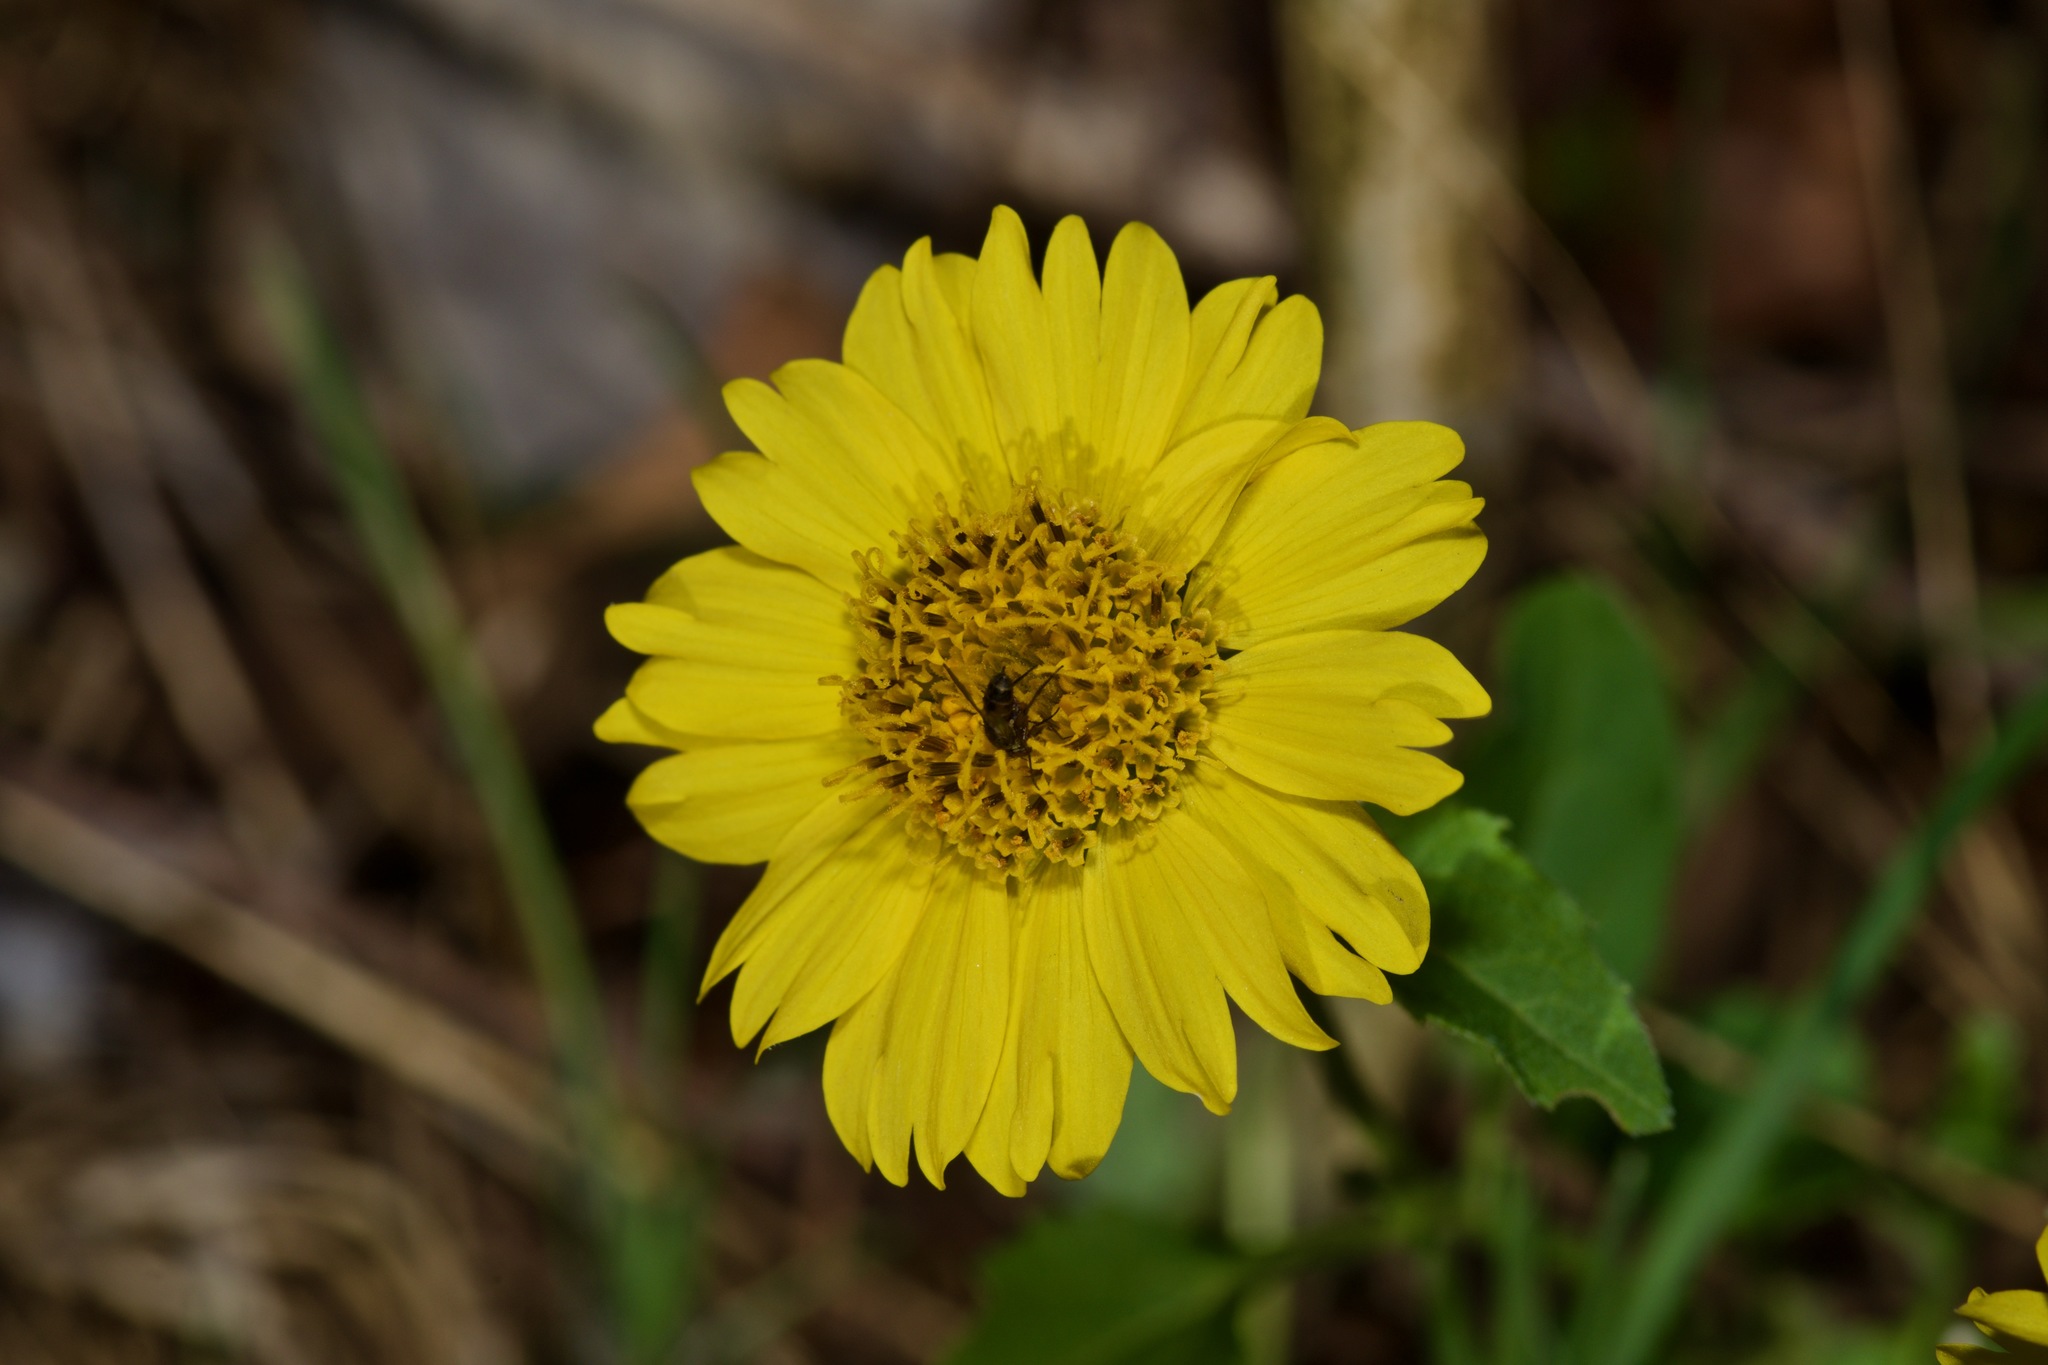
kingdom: Plantae
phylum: Tracheophyta
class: Magnoliopsida
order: Asterales
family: Asteraceae
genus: Verbesina
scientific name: Verbesina encelioides
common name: Golden crownbeard
